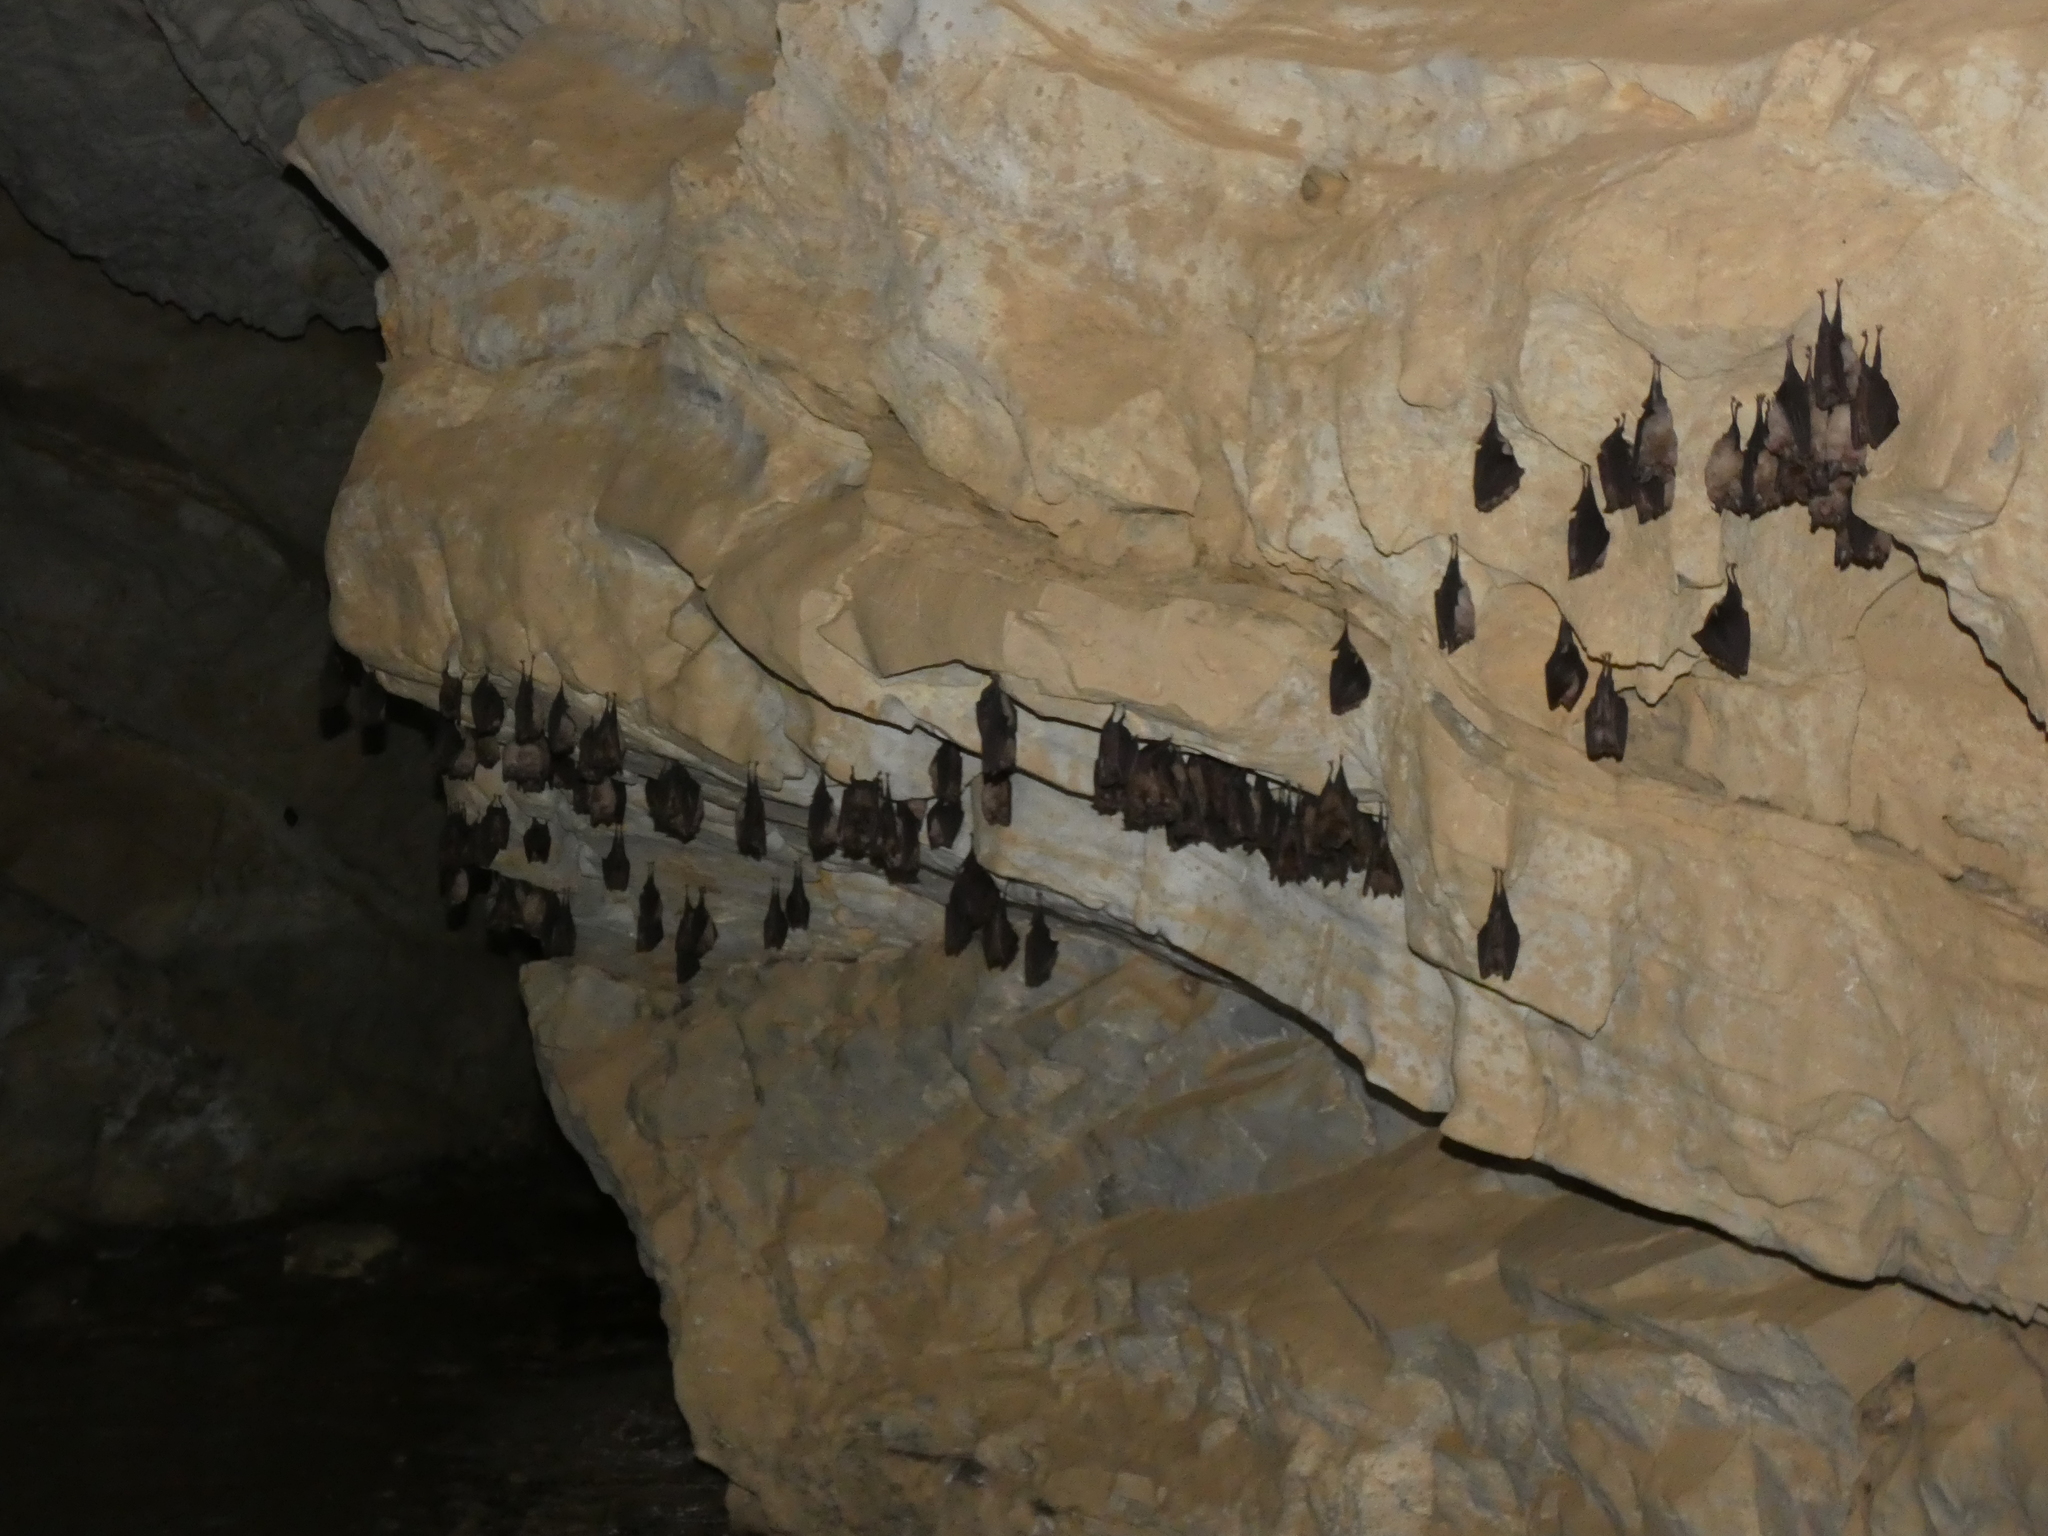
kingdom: Animalia
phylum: Chordata
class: Mammalia
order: Chiroptera
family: Rhinolophidae
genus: Rhinolophus
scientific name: Rhinolophus ferrumequinum
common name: Greater horseshoe bat
